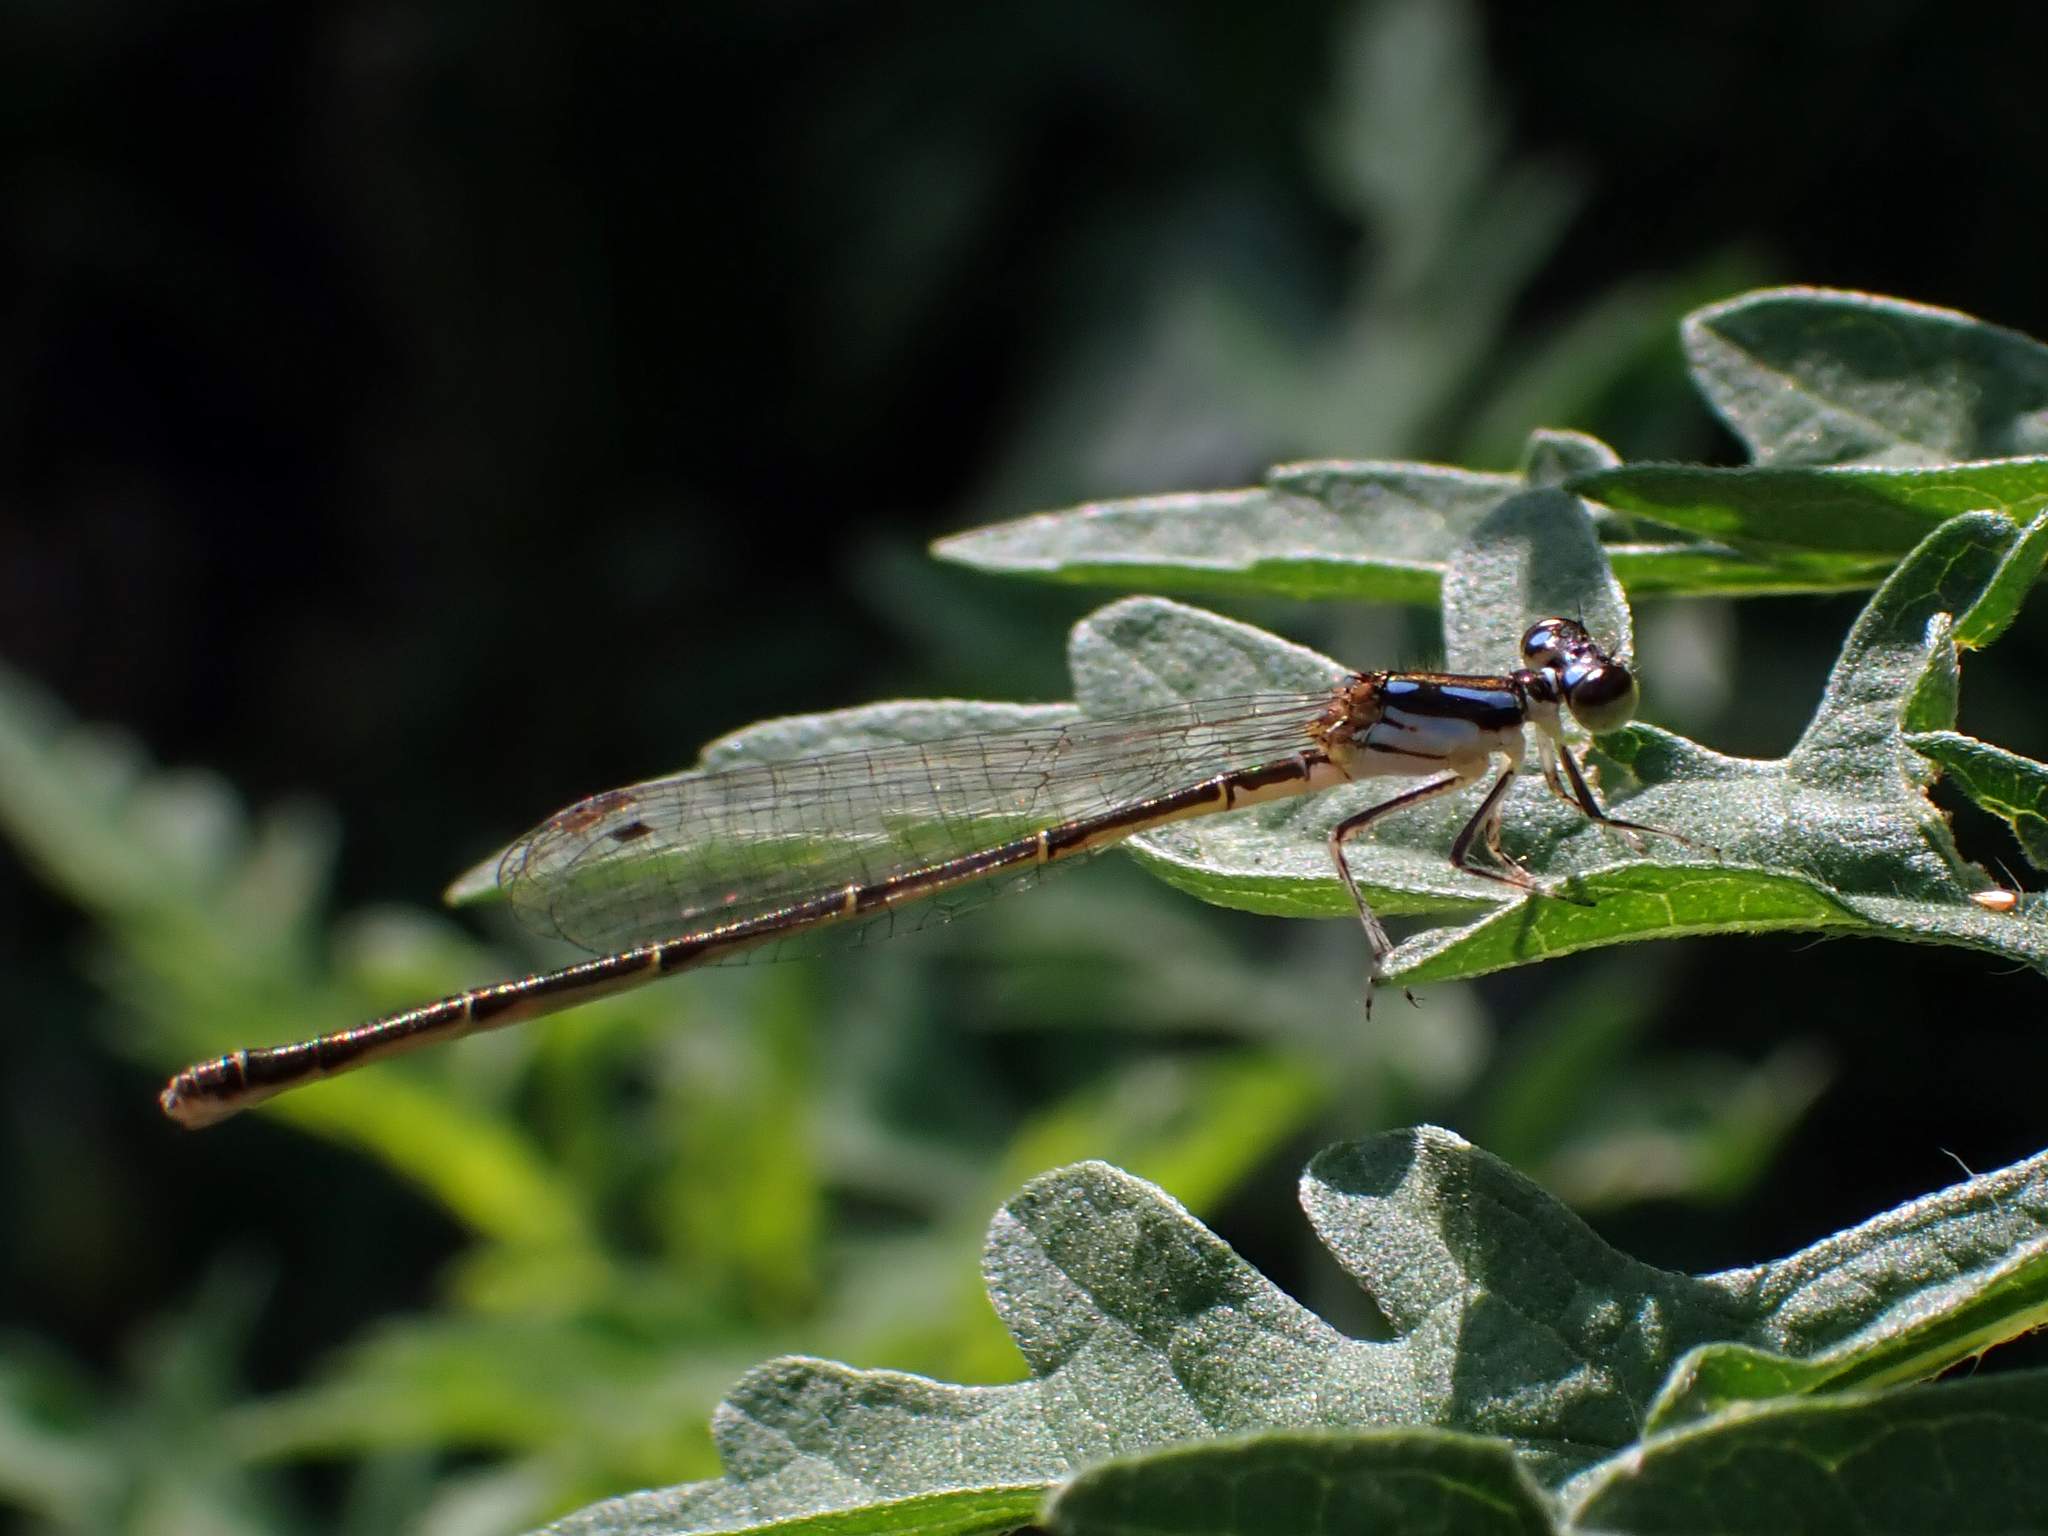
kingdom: Animalia
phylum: Arthropoda
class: Insecta
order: Odonata
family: Coenagrionidae
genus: Ischnura
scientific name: Ischnura posita
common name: Fragile forktail
